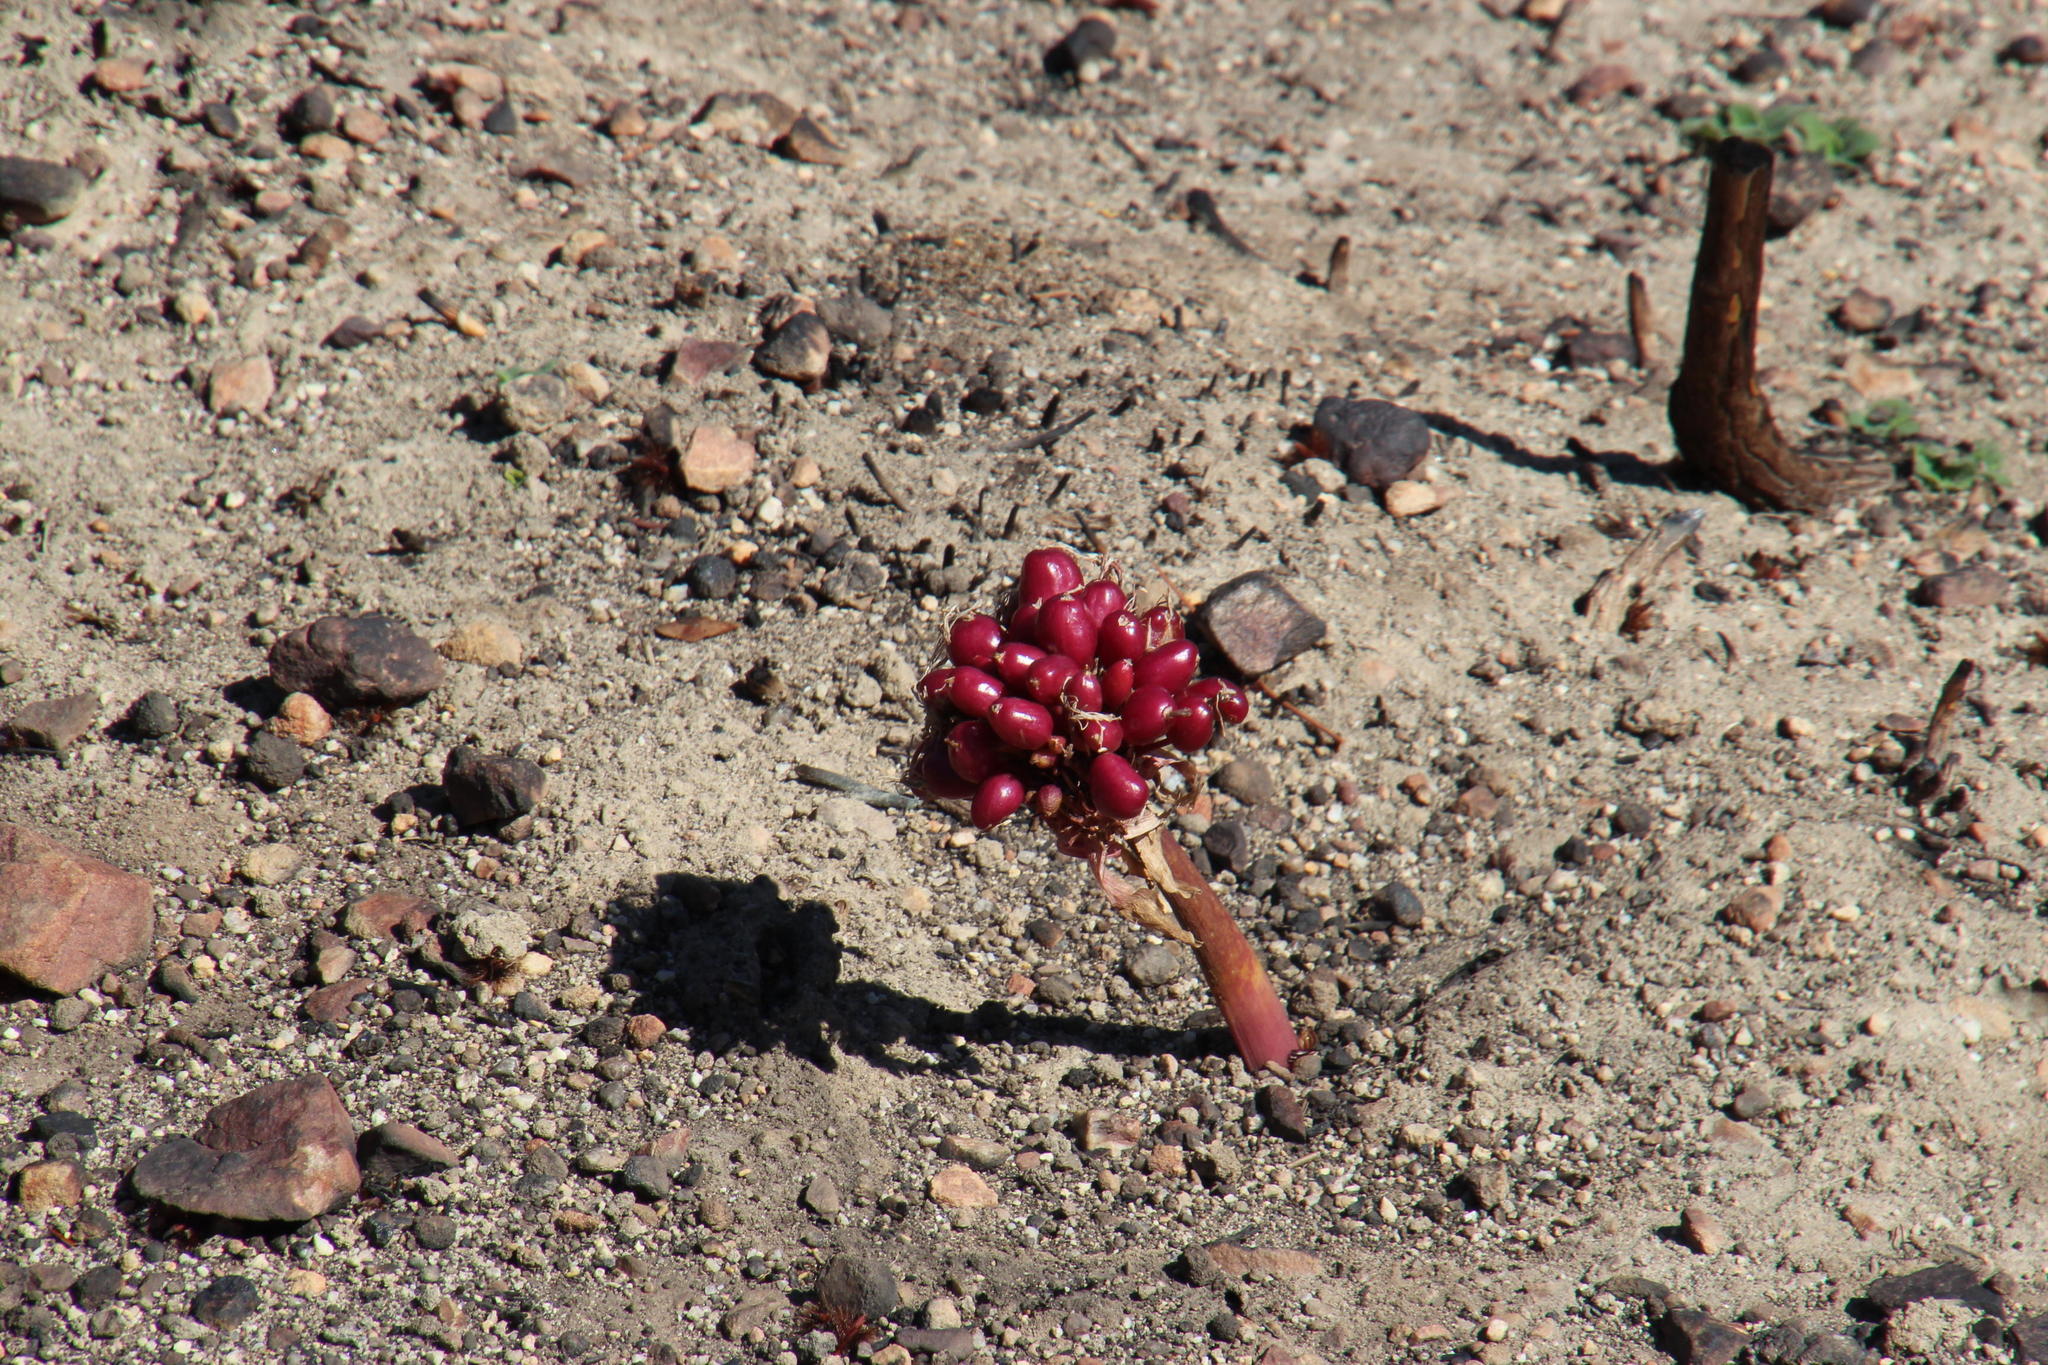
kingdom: Plantae
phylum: Tracheophyta
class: Liliopsida
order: Asparagales
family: Amaryllidaceae
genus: Haemanthus
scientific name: Haemanthus sanguineus
